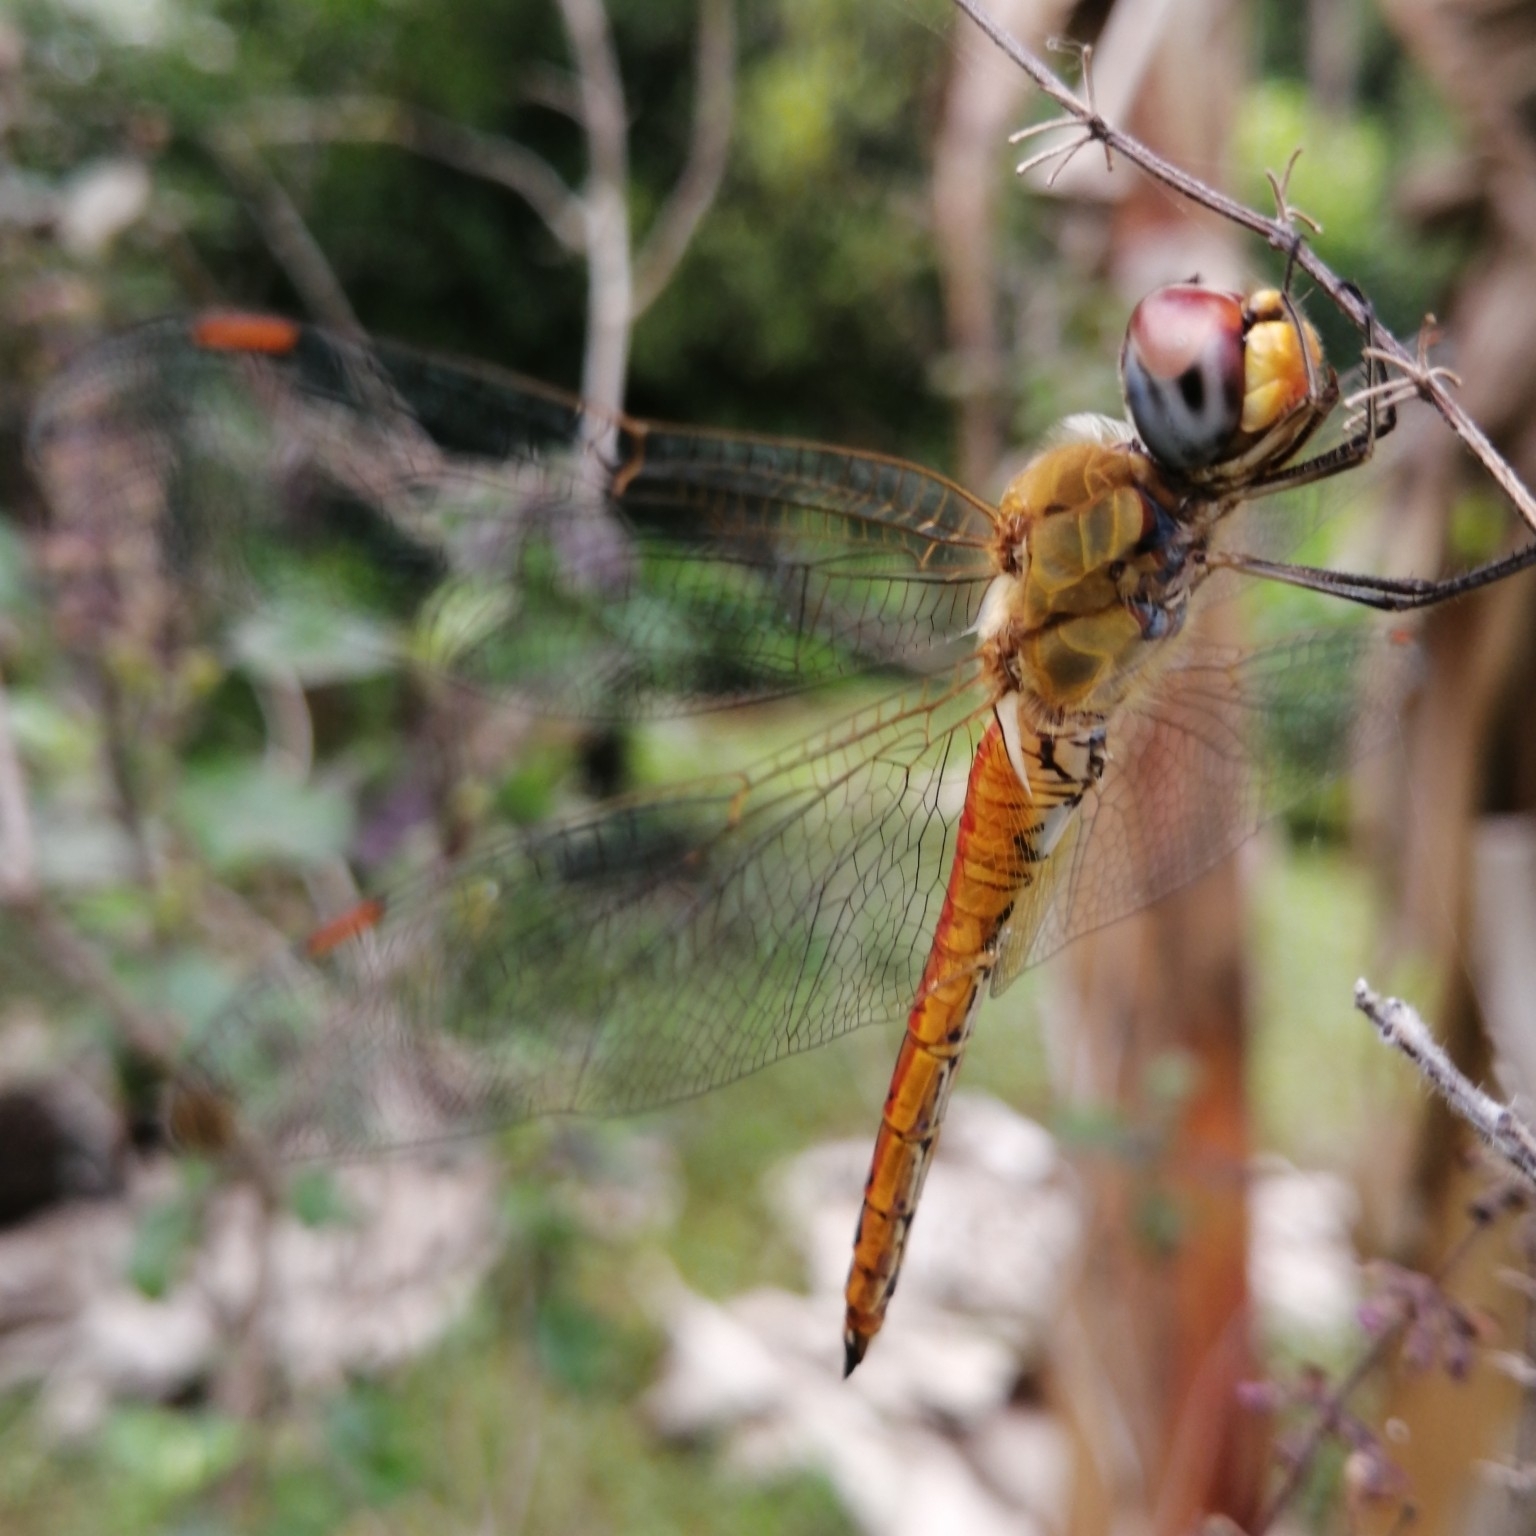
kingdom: Animalia
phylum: Arthropoda
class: Insecta
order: Odonata
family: Libellulidae
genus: Pantala
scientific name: Pantala flavescens
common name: Wandering glider
